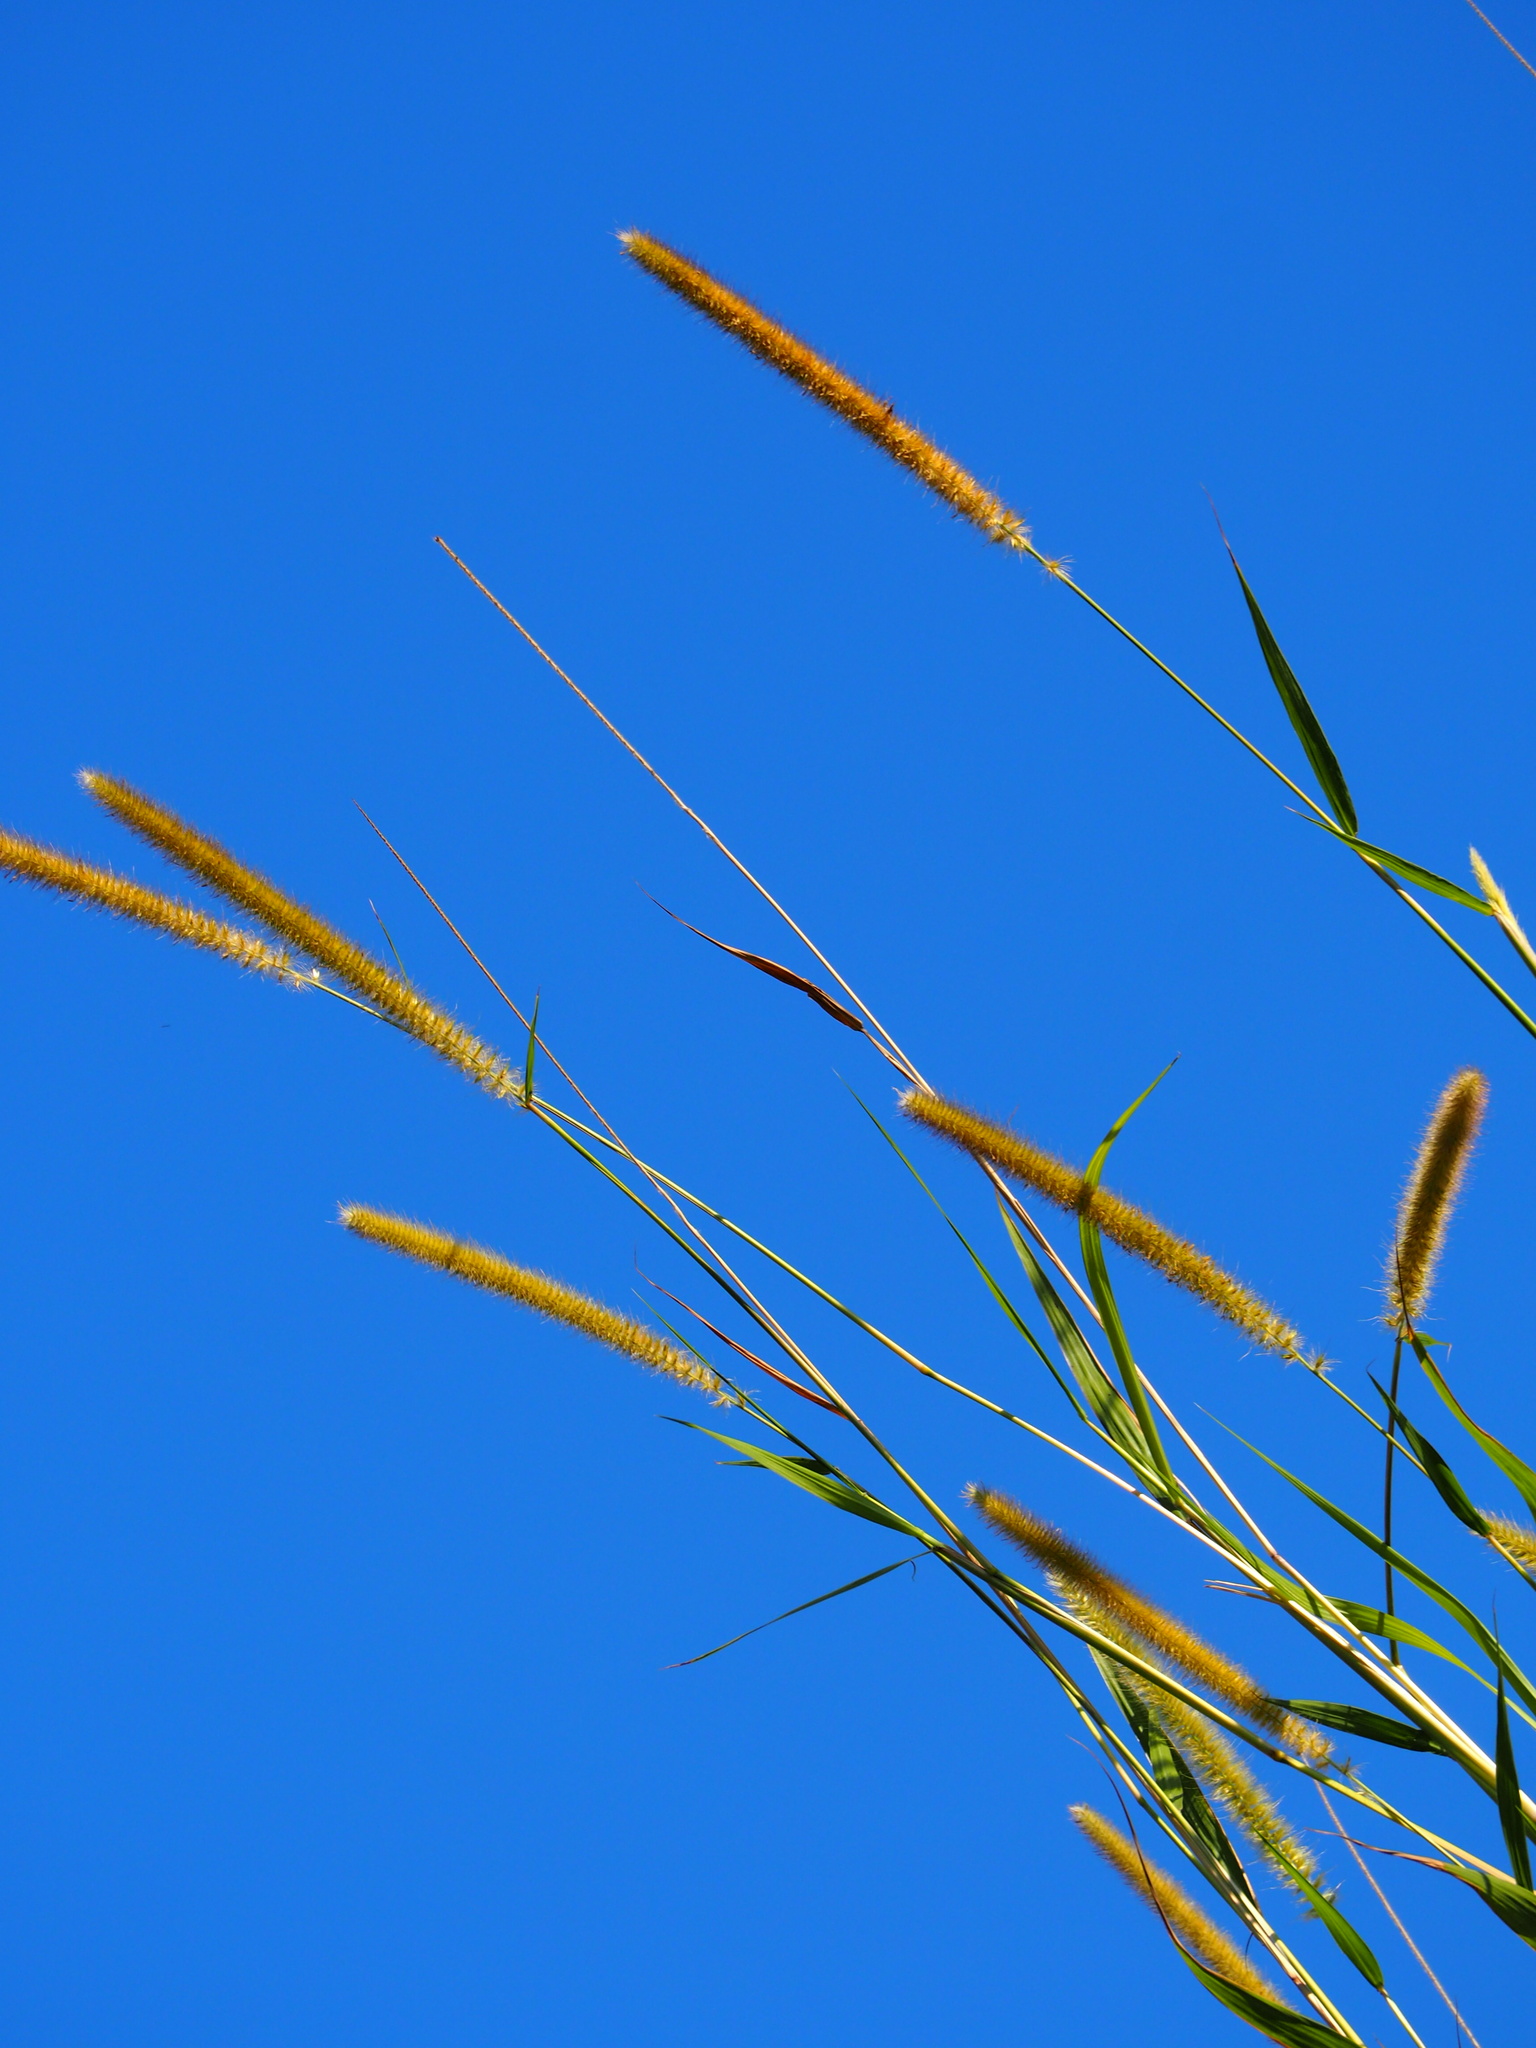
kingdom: Plantae
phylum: Tracheophyta
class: Liliopsida
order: Poales
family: Poaceae
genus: Cenchrus
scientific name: Cenchrus purpureus
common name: Elephant grass
